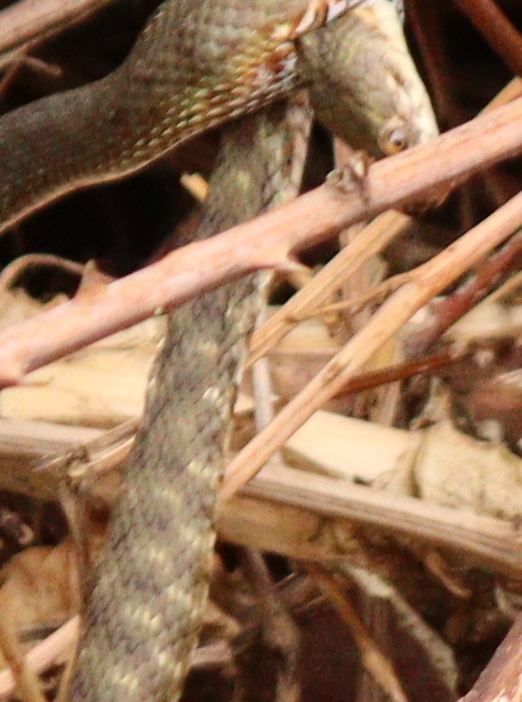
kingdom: Animalia
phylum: Chordata
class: Squamata
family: Colubridae
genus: Natrix
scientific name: Natrix tessellata
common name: Dice snake
